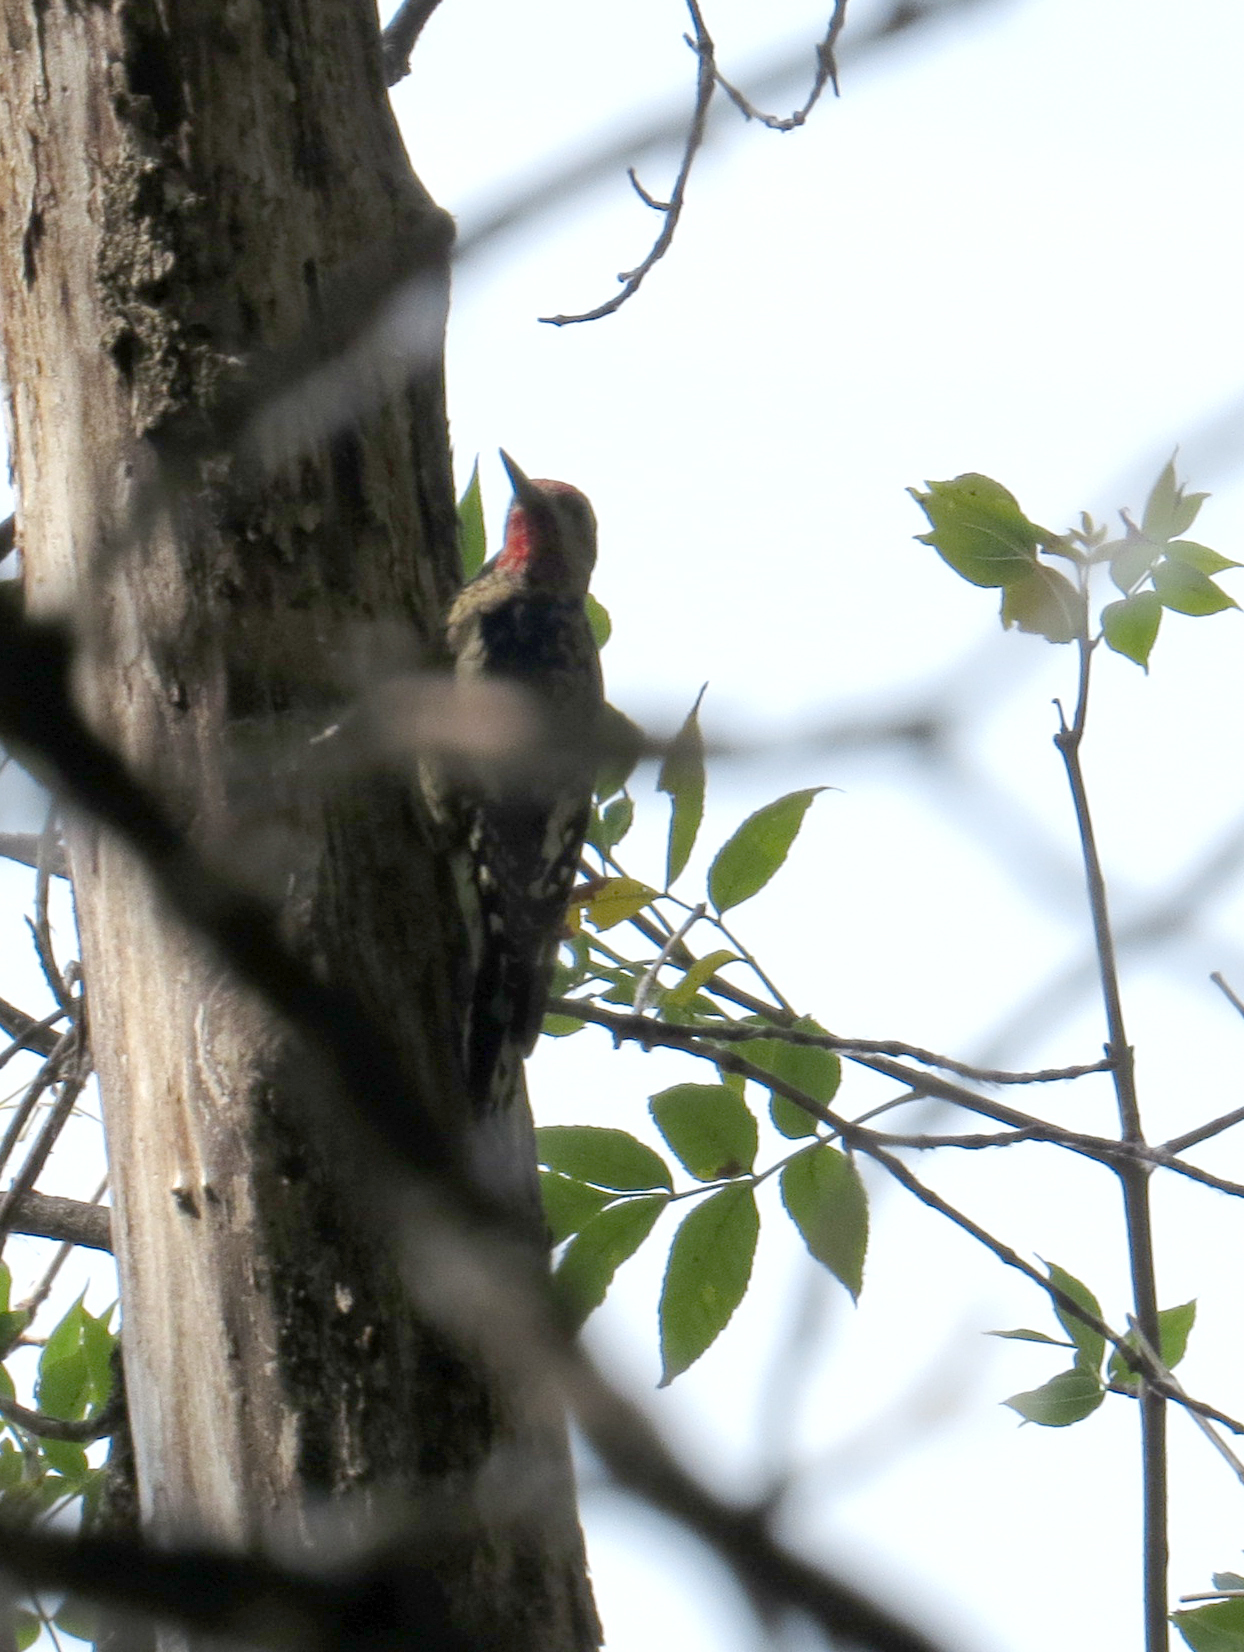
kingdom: Animalia
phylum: Chordata
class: Aves
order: Piciformes
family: Picidae
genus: Sphyrapicus
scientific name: Sphyrapicus varius
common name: Yellow-bellied sapsucker
